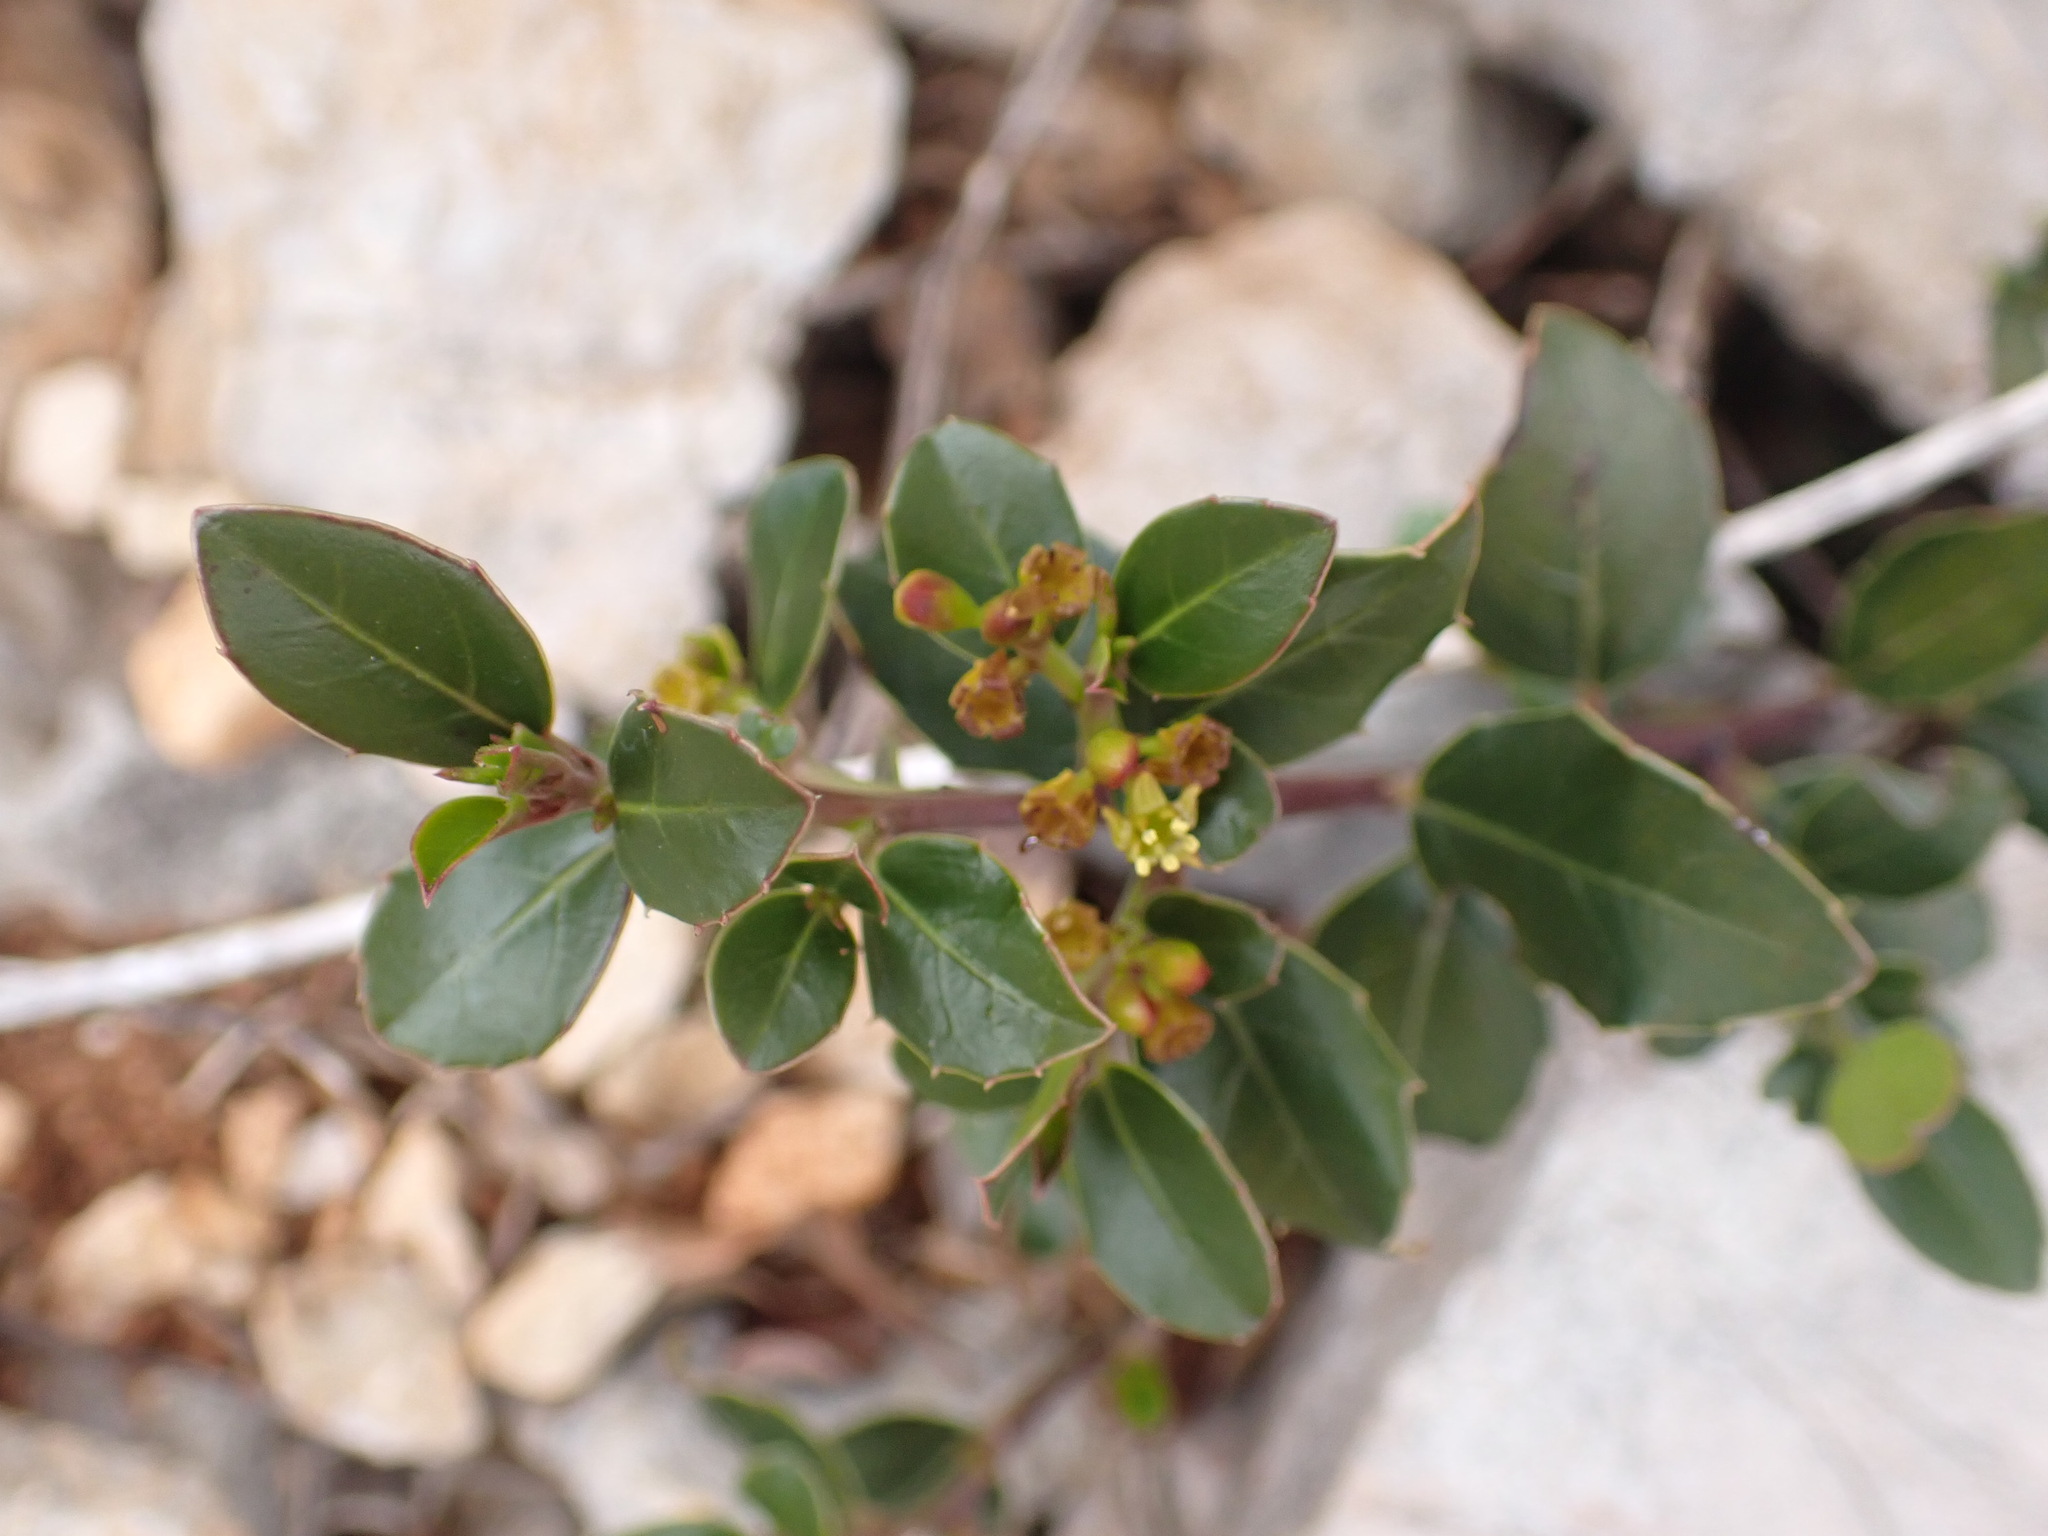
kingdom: Plantae
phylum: Tracheophyta
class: Magnoliopsida
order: Rosales
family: Rhamnaceae
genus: Rhamnus
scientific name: Rhamnus alaternus
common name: Mediterranean buckthorn
